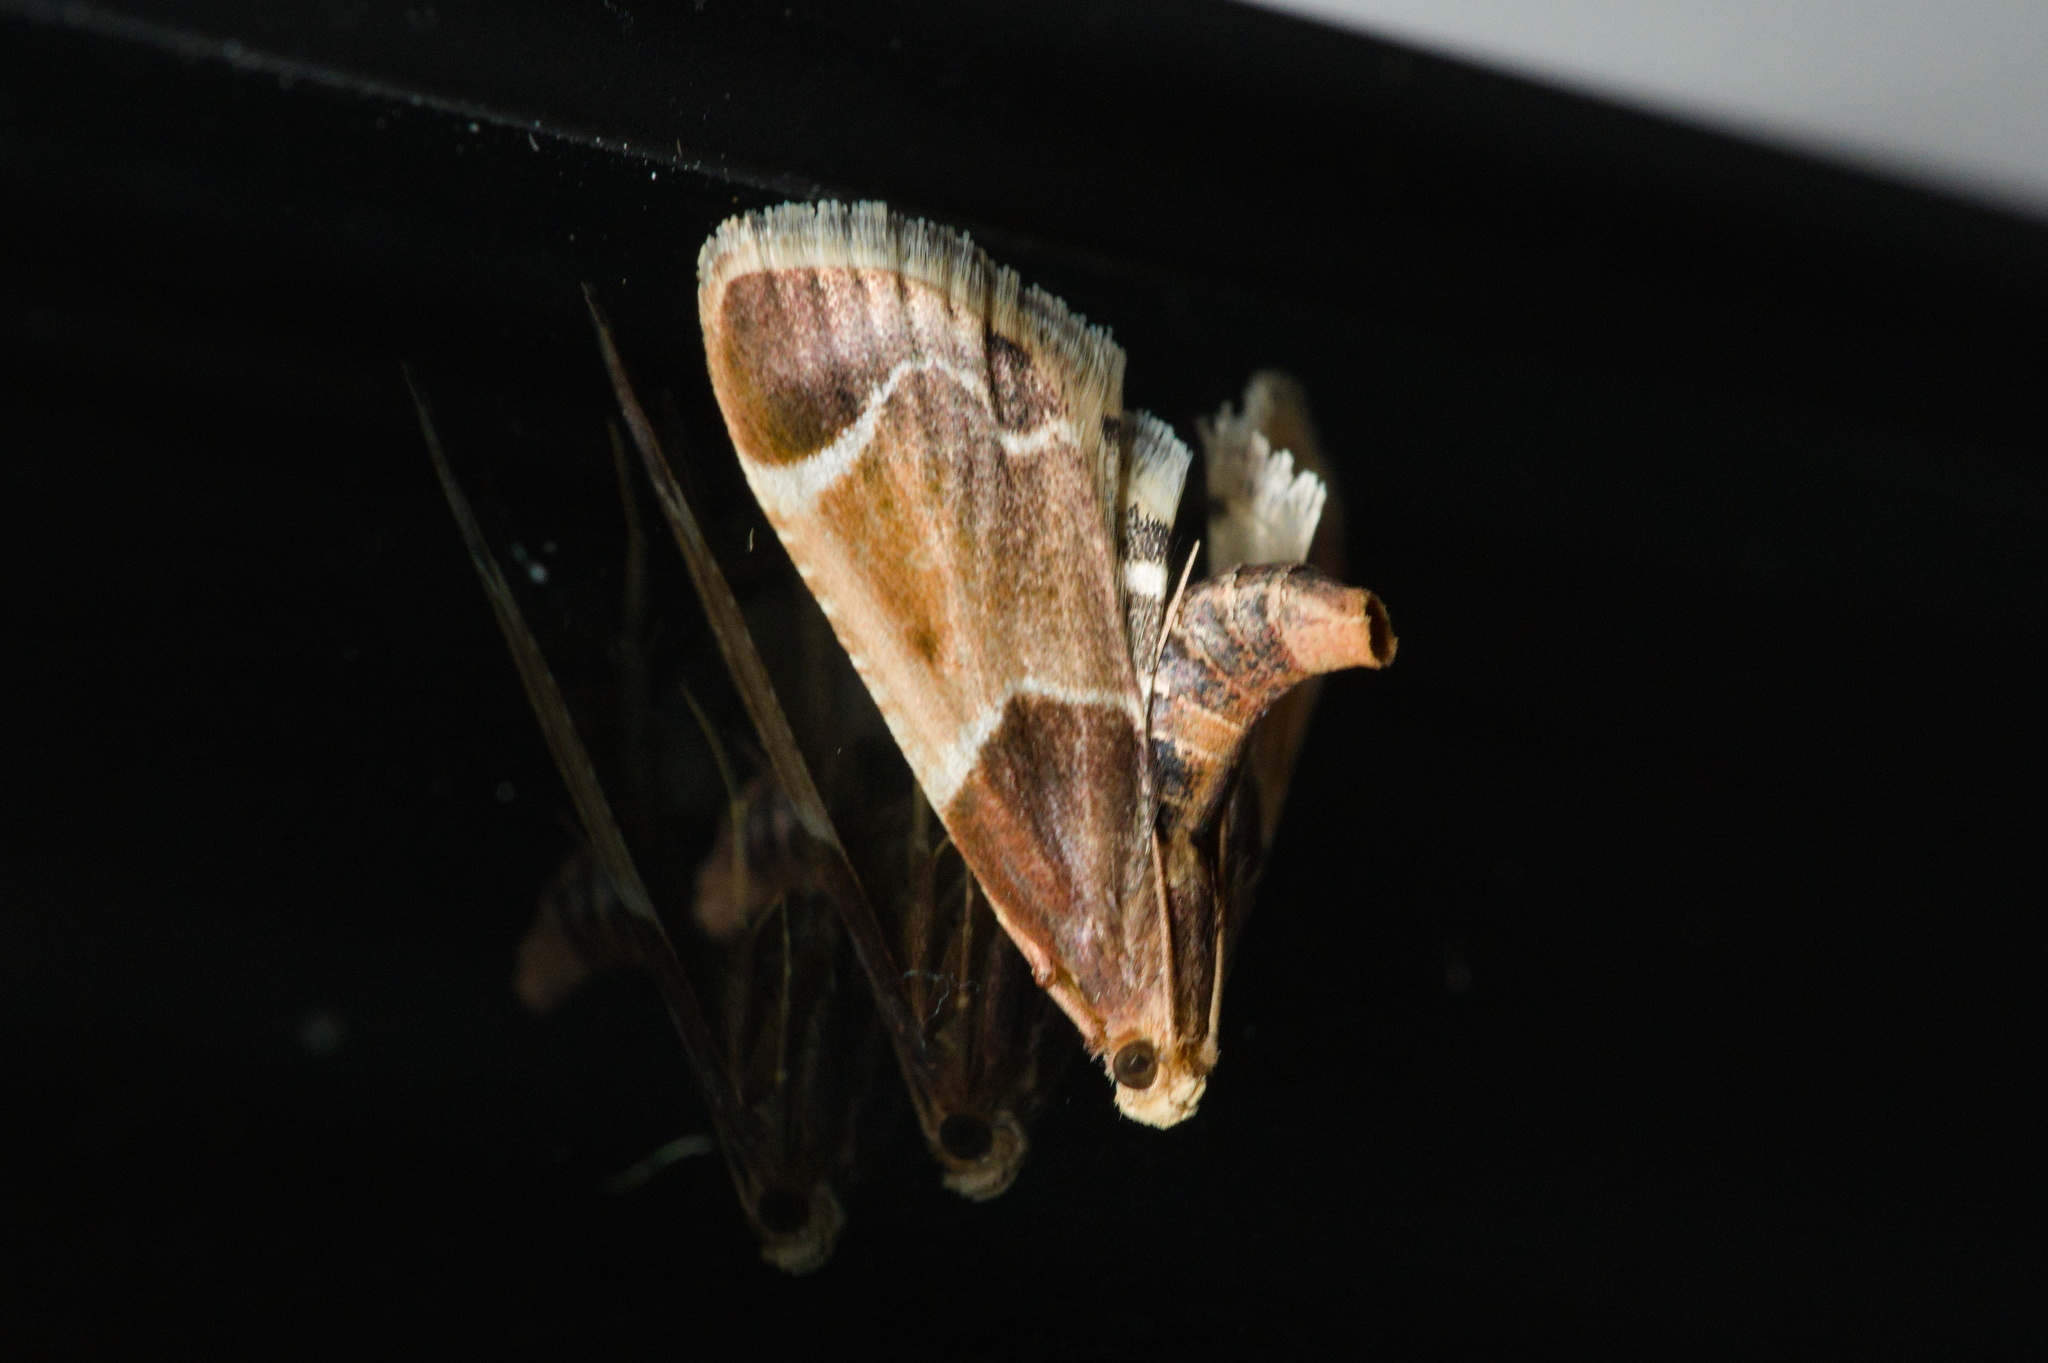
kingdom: Animalia
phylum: Arthropoda
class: Insecta
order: Lepidoptera
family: Pyralidae
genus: Pyralis
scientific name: Pyralis farinalis
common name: Meal moth
